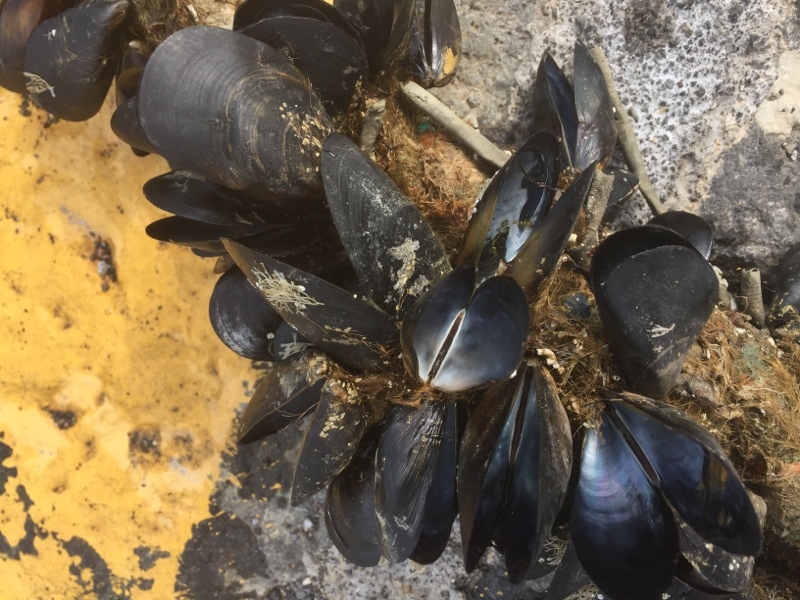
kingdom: Animalia
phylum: Mollusca
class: Bivalvia
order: Mytilida
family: Mytilidae
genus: Mytilus
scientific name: Mytilus galloprovincialis
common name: Mediterranean mussel
